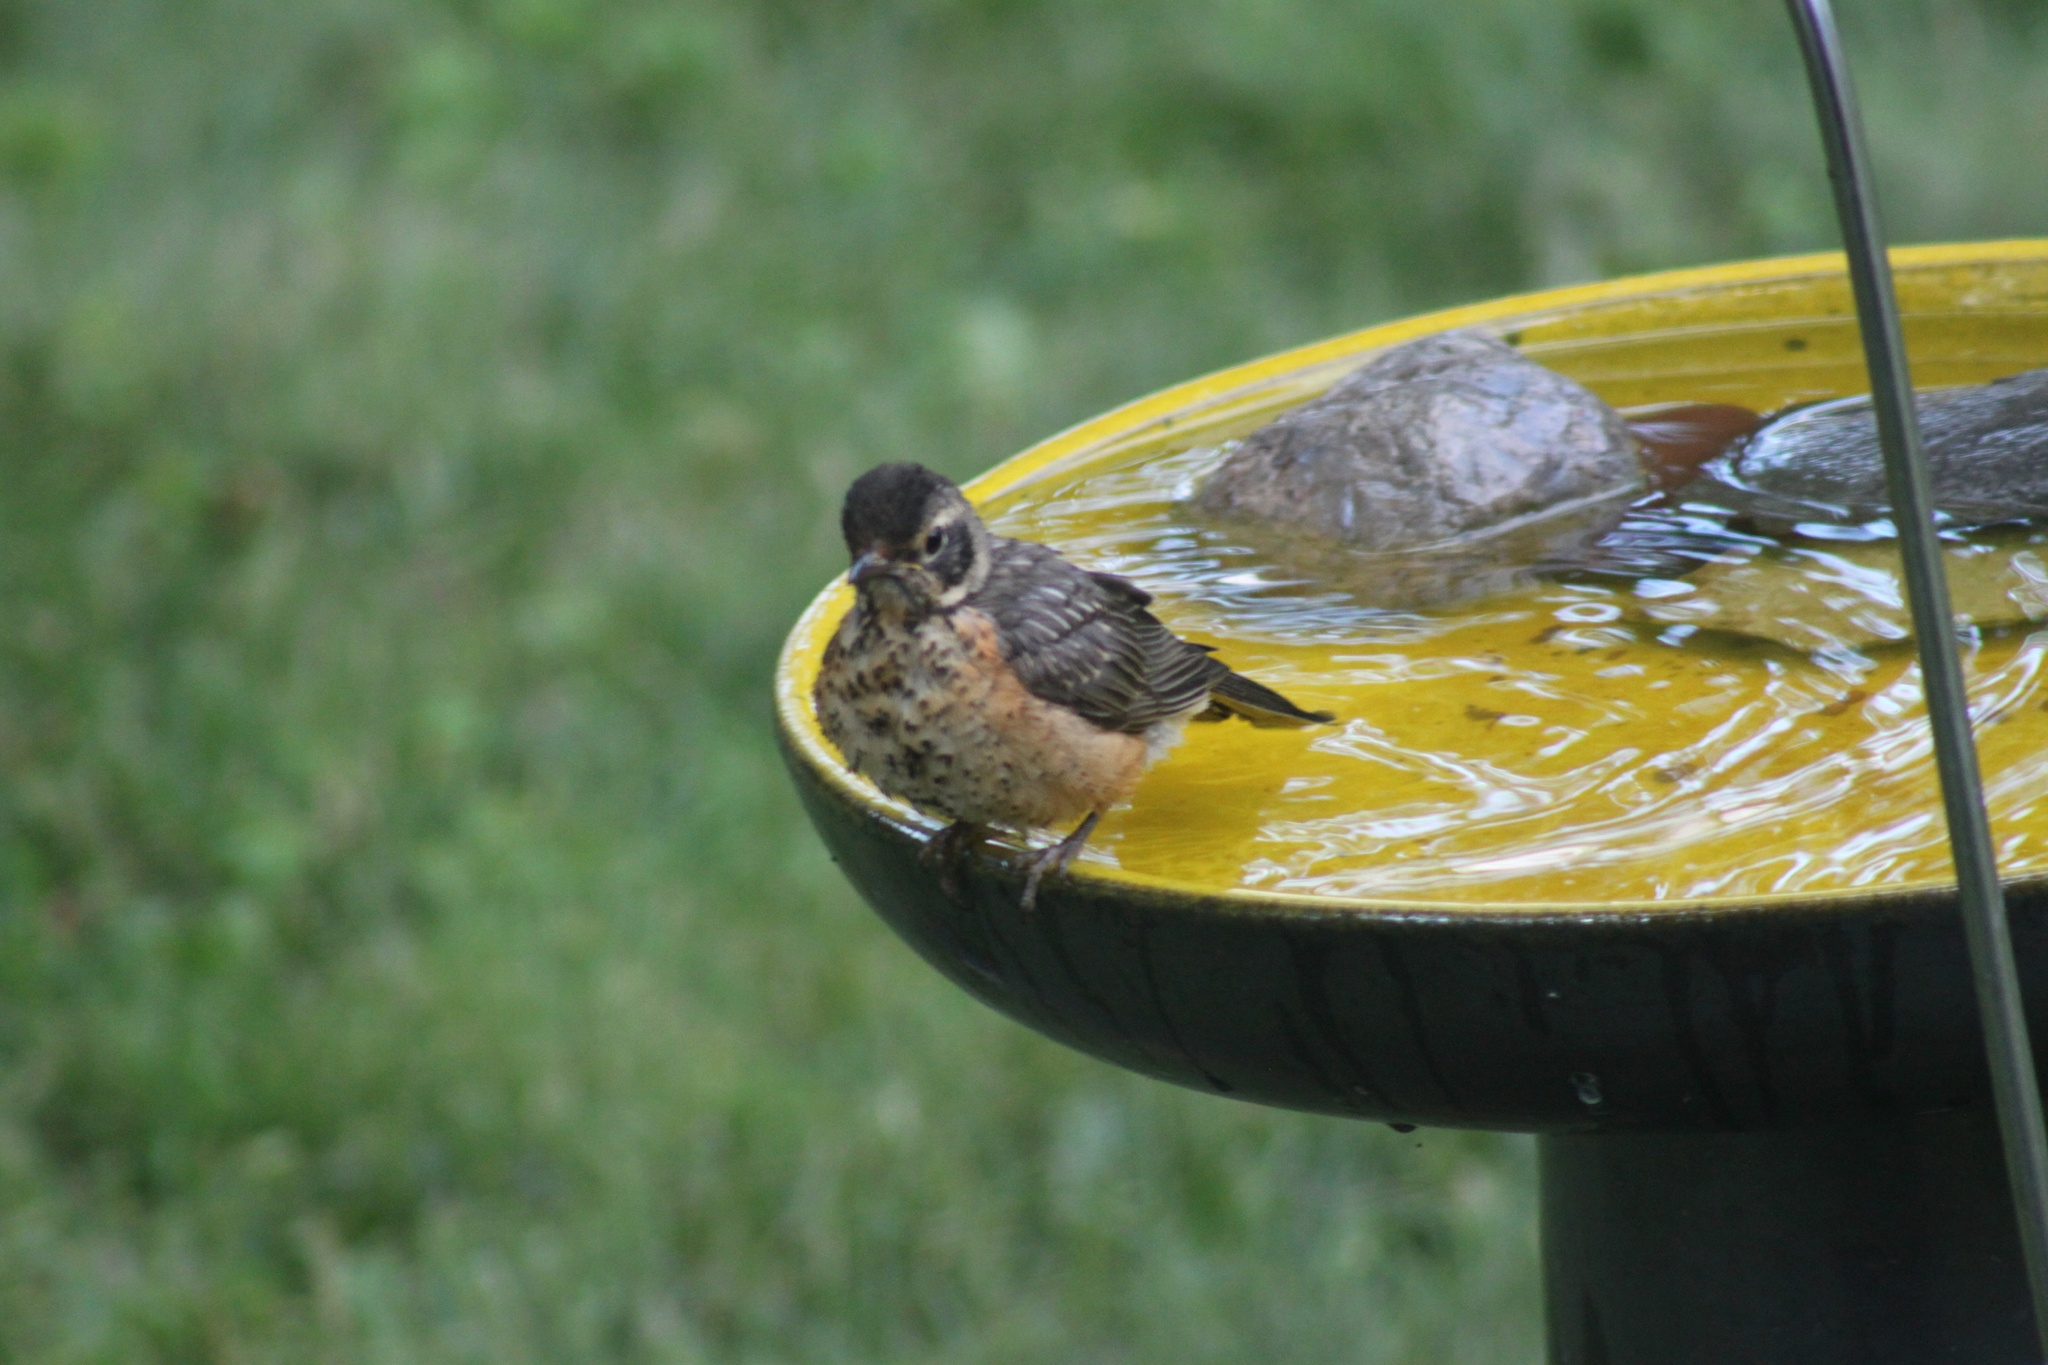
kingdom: Animalia
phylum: Chordata
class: Aves
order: Passeriformes
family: Turdidae
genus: Turdus
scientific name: Turdus migratorius
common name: American robin
